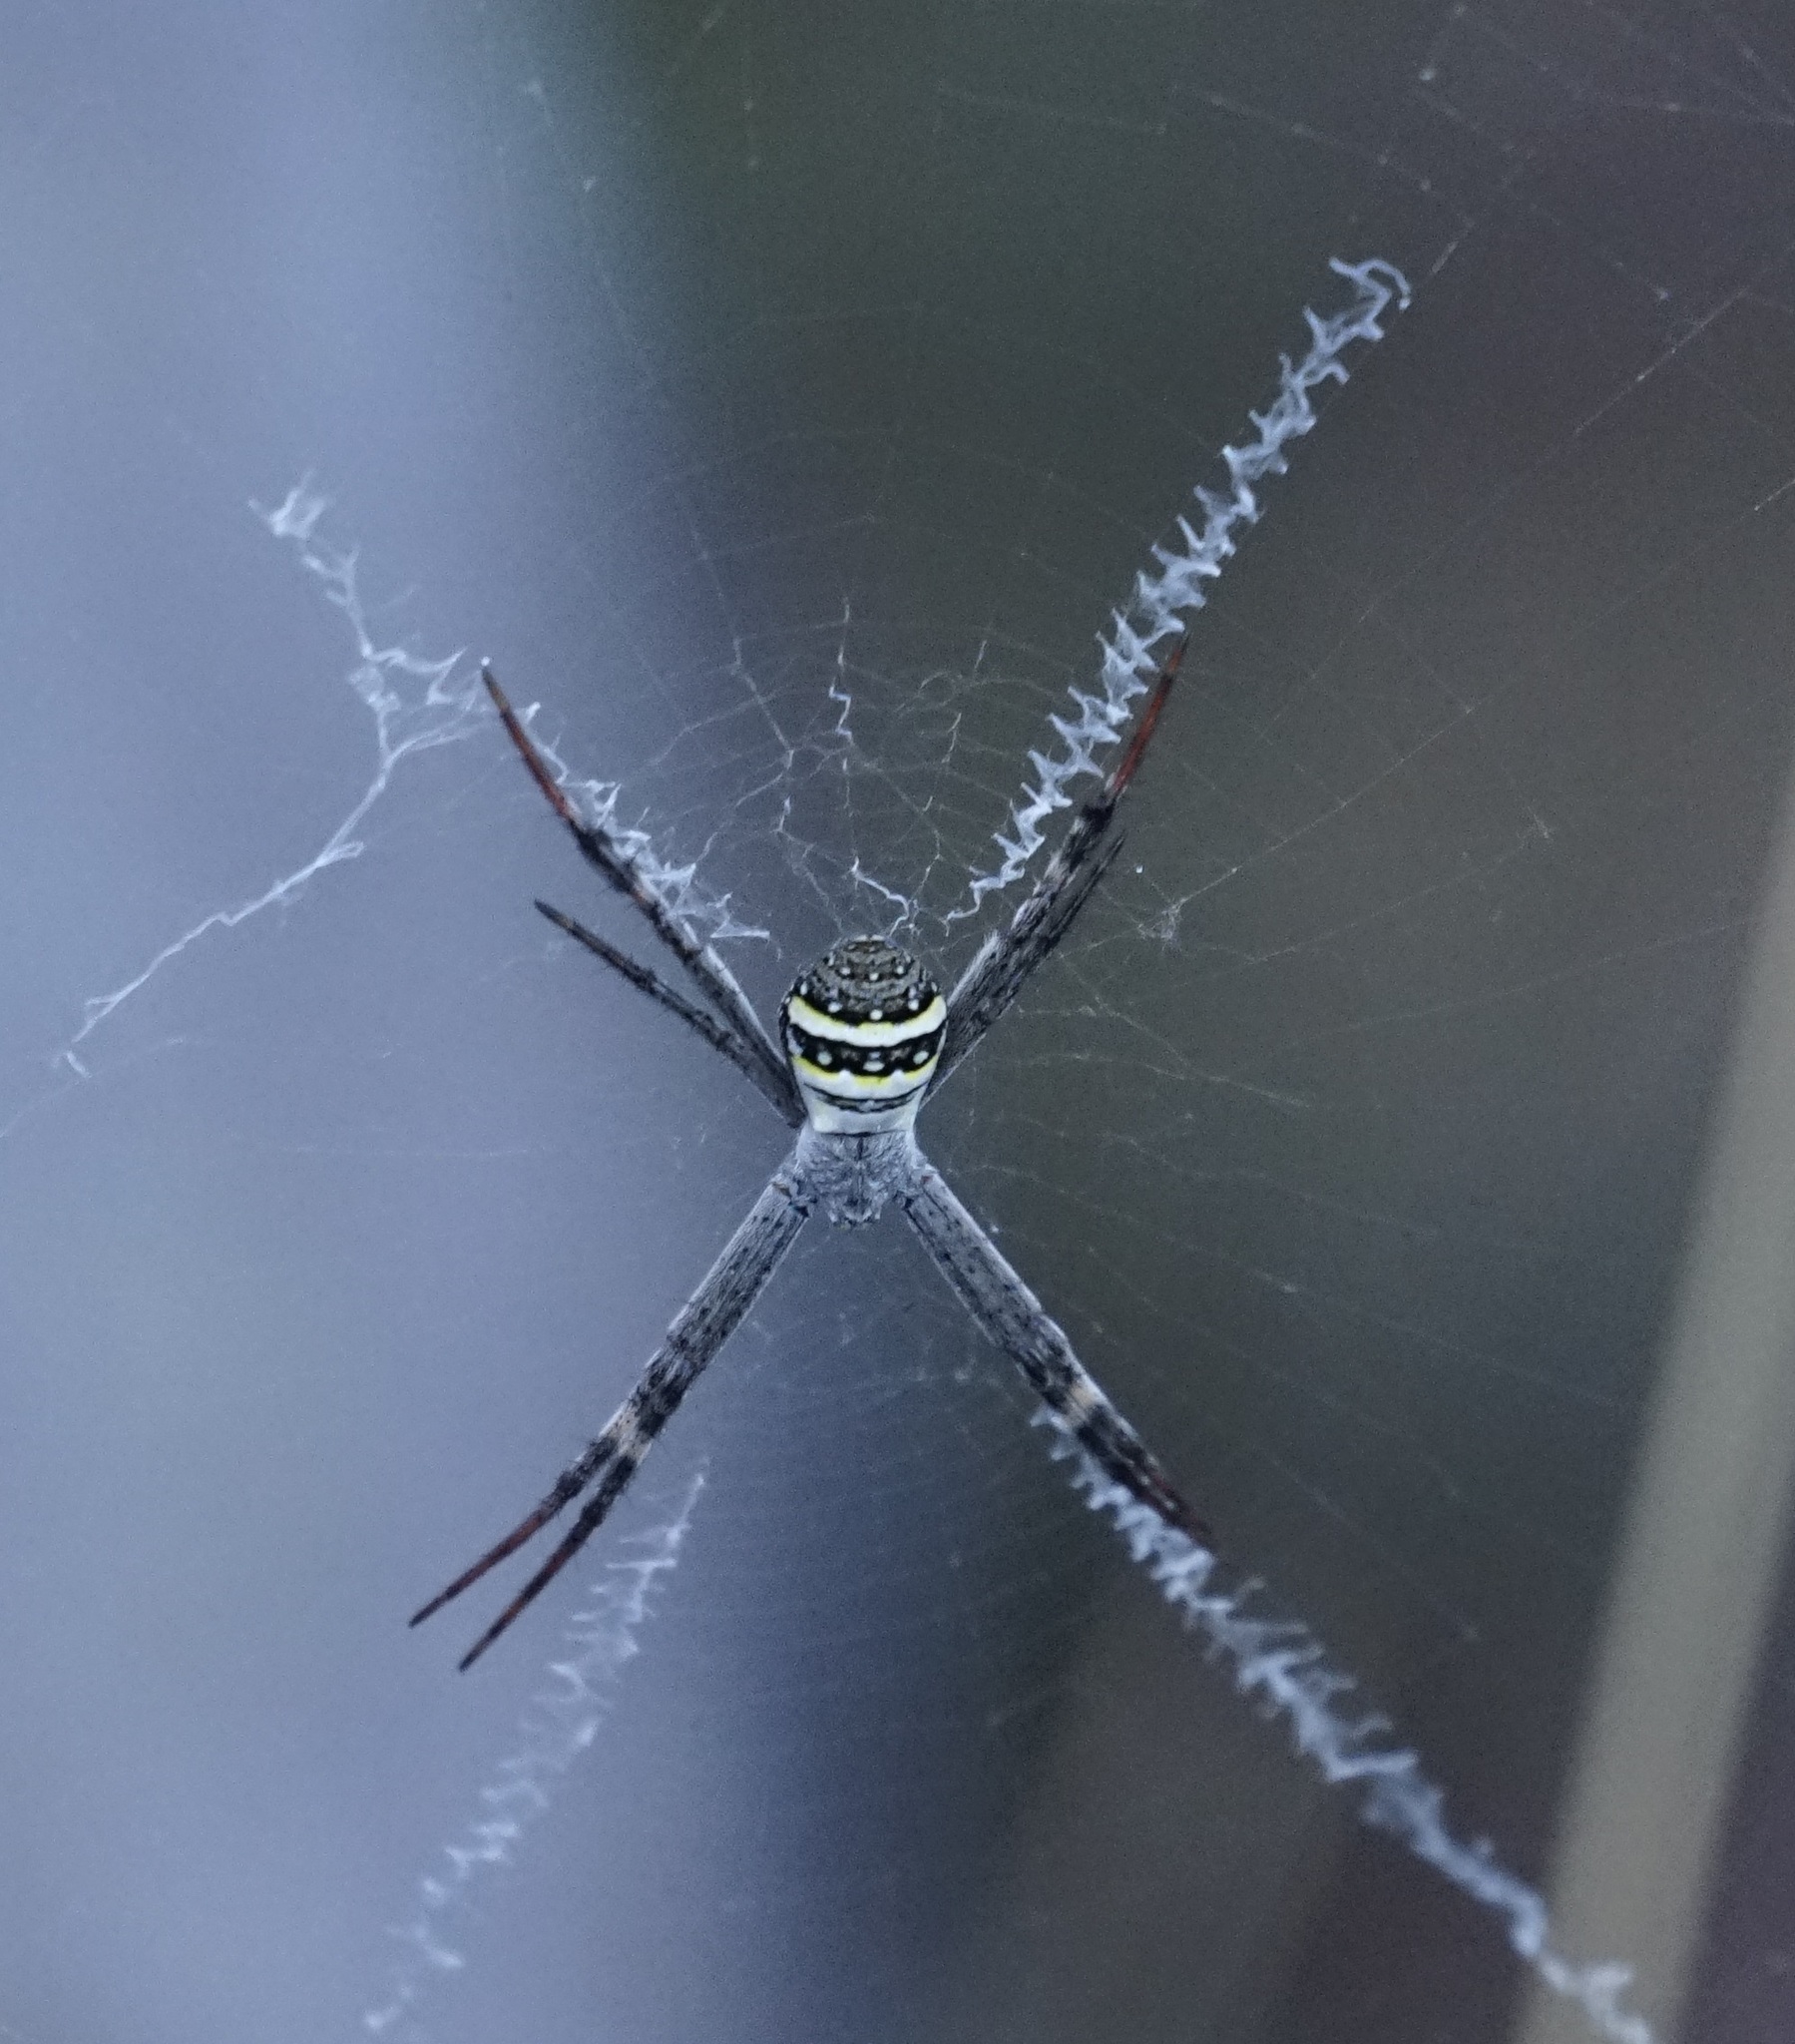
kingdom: Animalia
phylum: Arthropoda
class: Arachnida
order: Araneae
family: Araneidae
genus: Argiope
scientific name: Argiope keyserlingi
